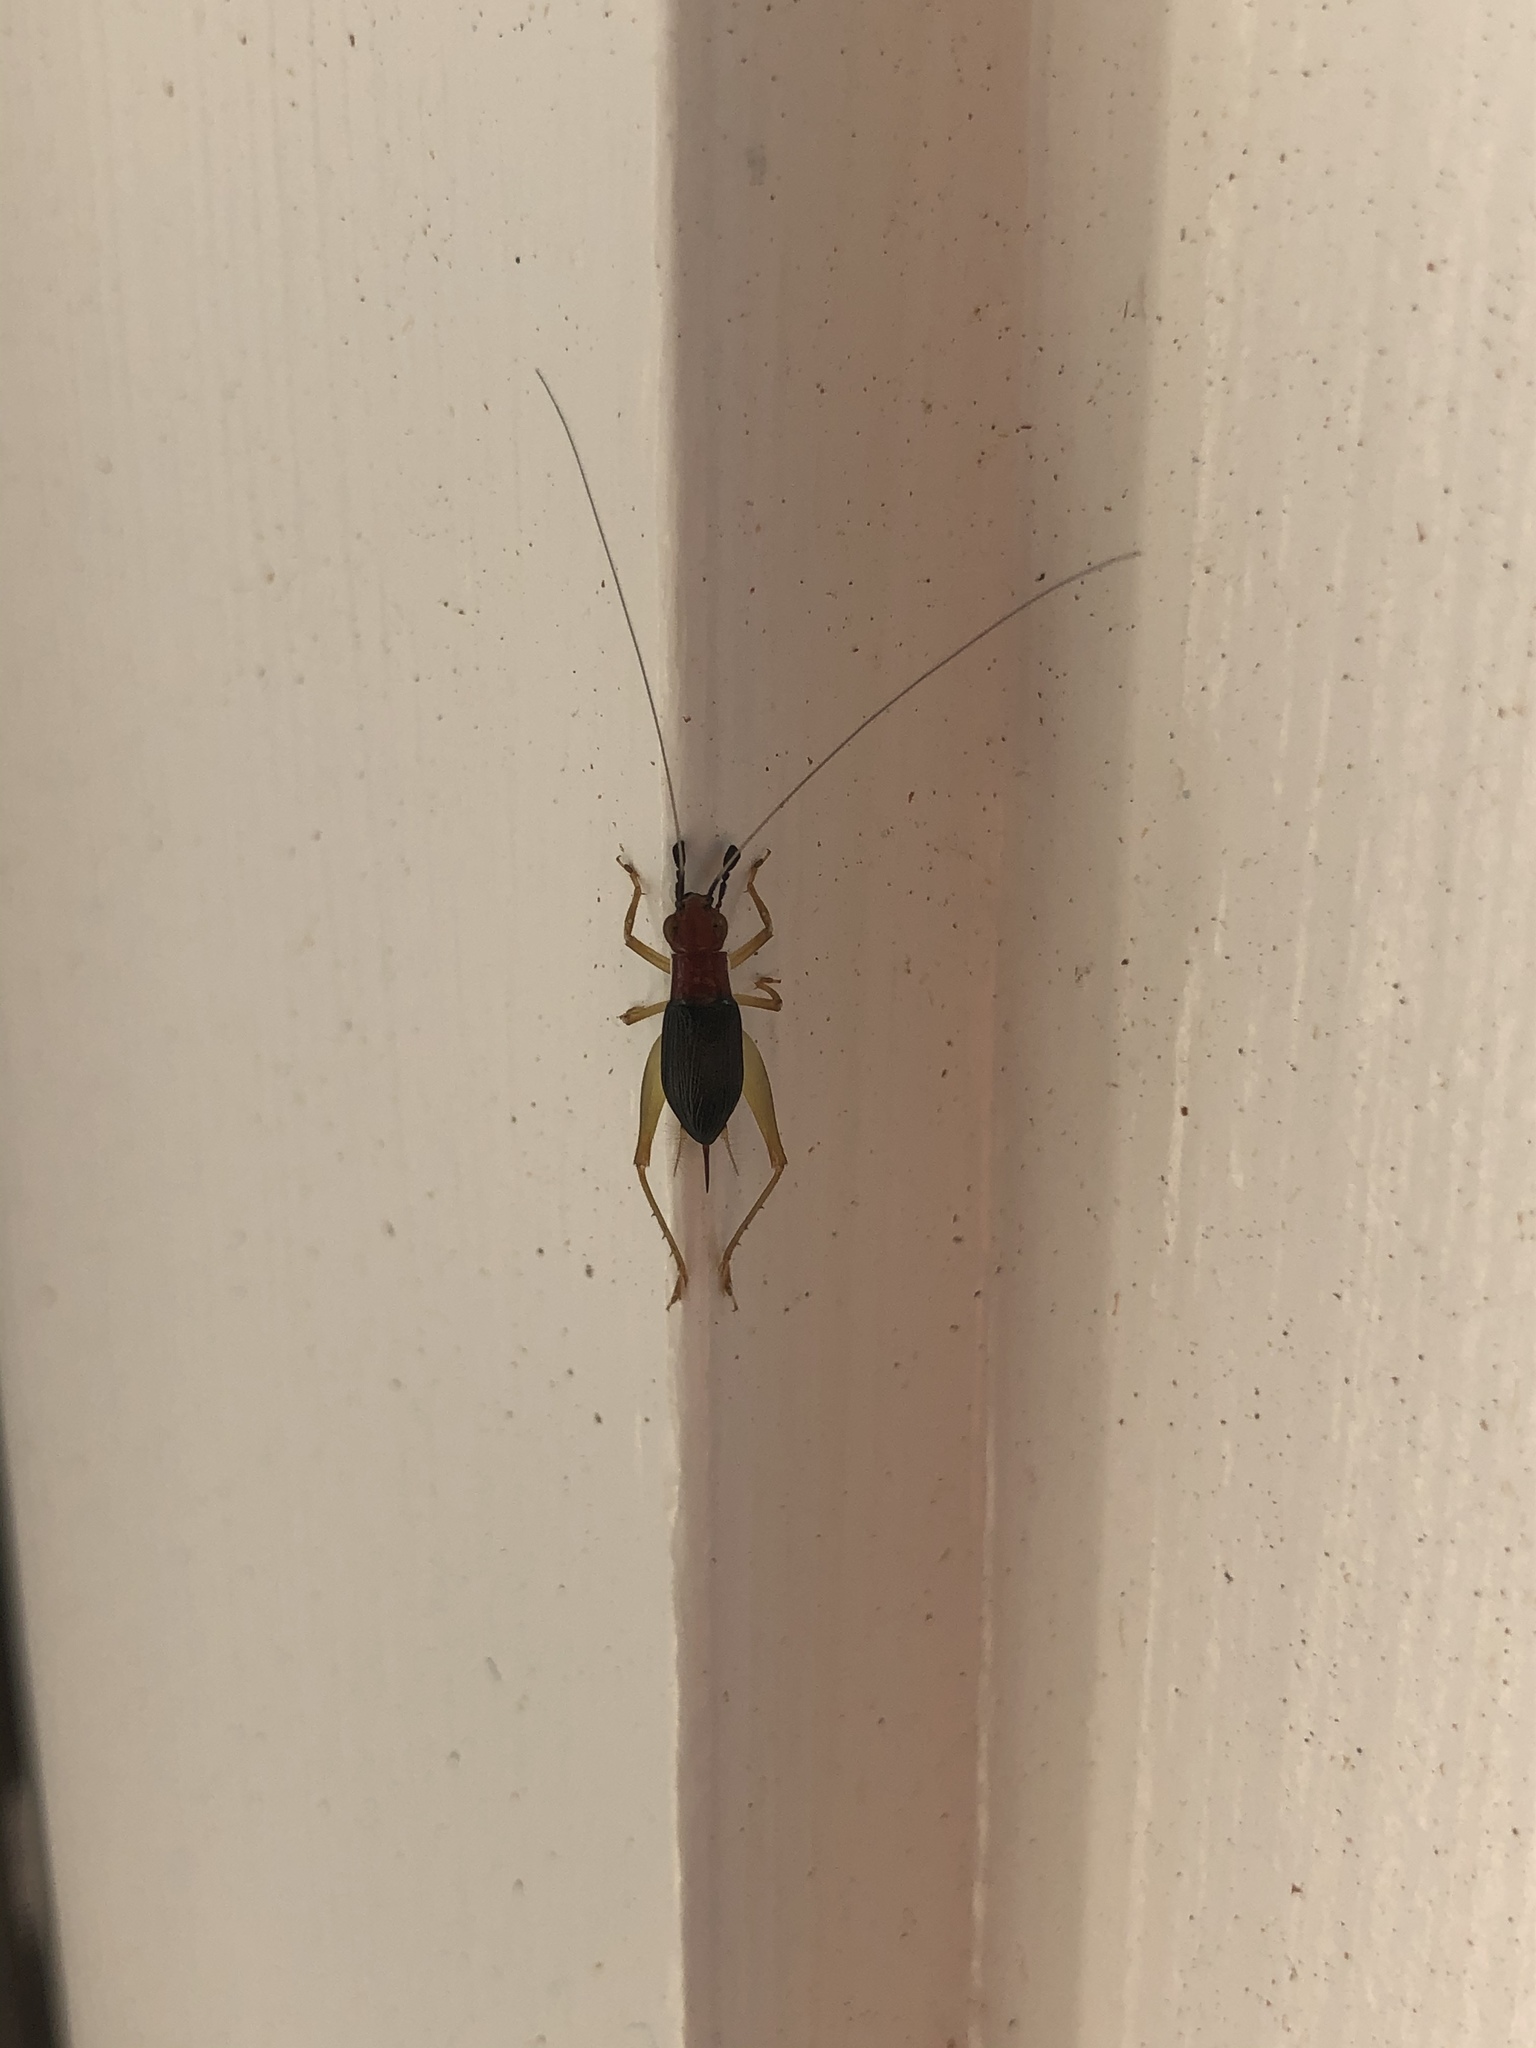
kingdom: Animalia
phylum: Arthropoda
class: Insecta
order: Orthoptera
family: Trigonidiidae
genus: Phyllopalpus
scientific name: Phyllopalpus pulchellus
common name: Handsome trig
